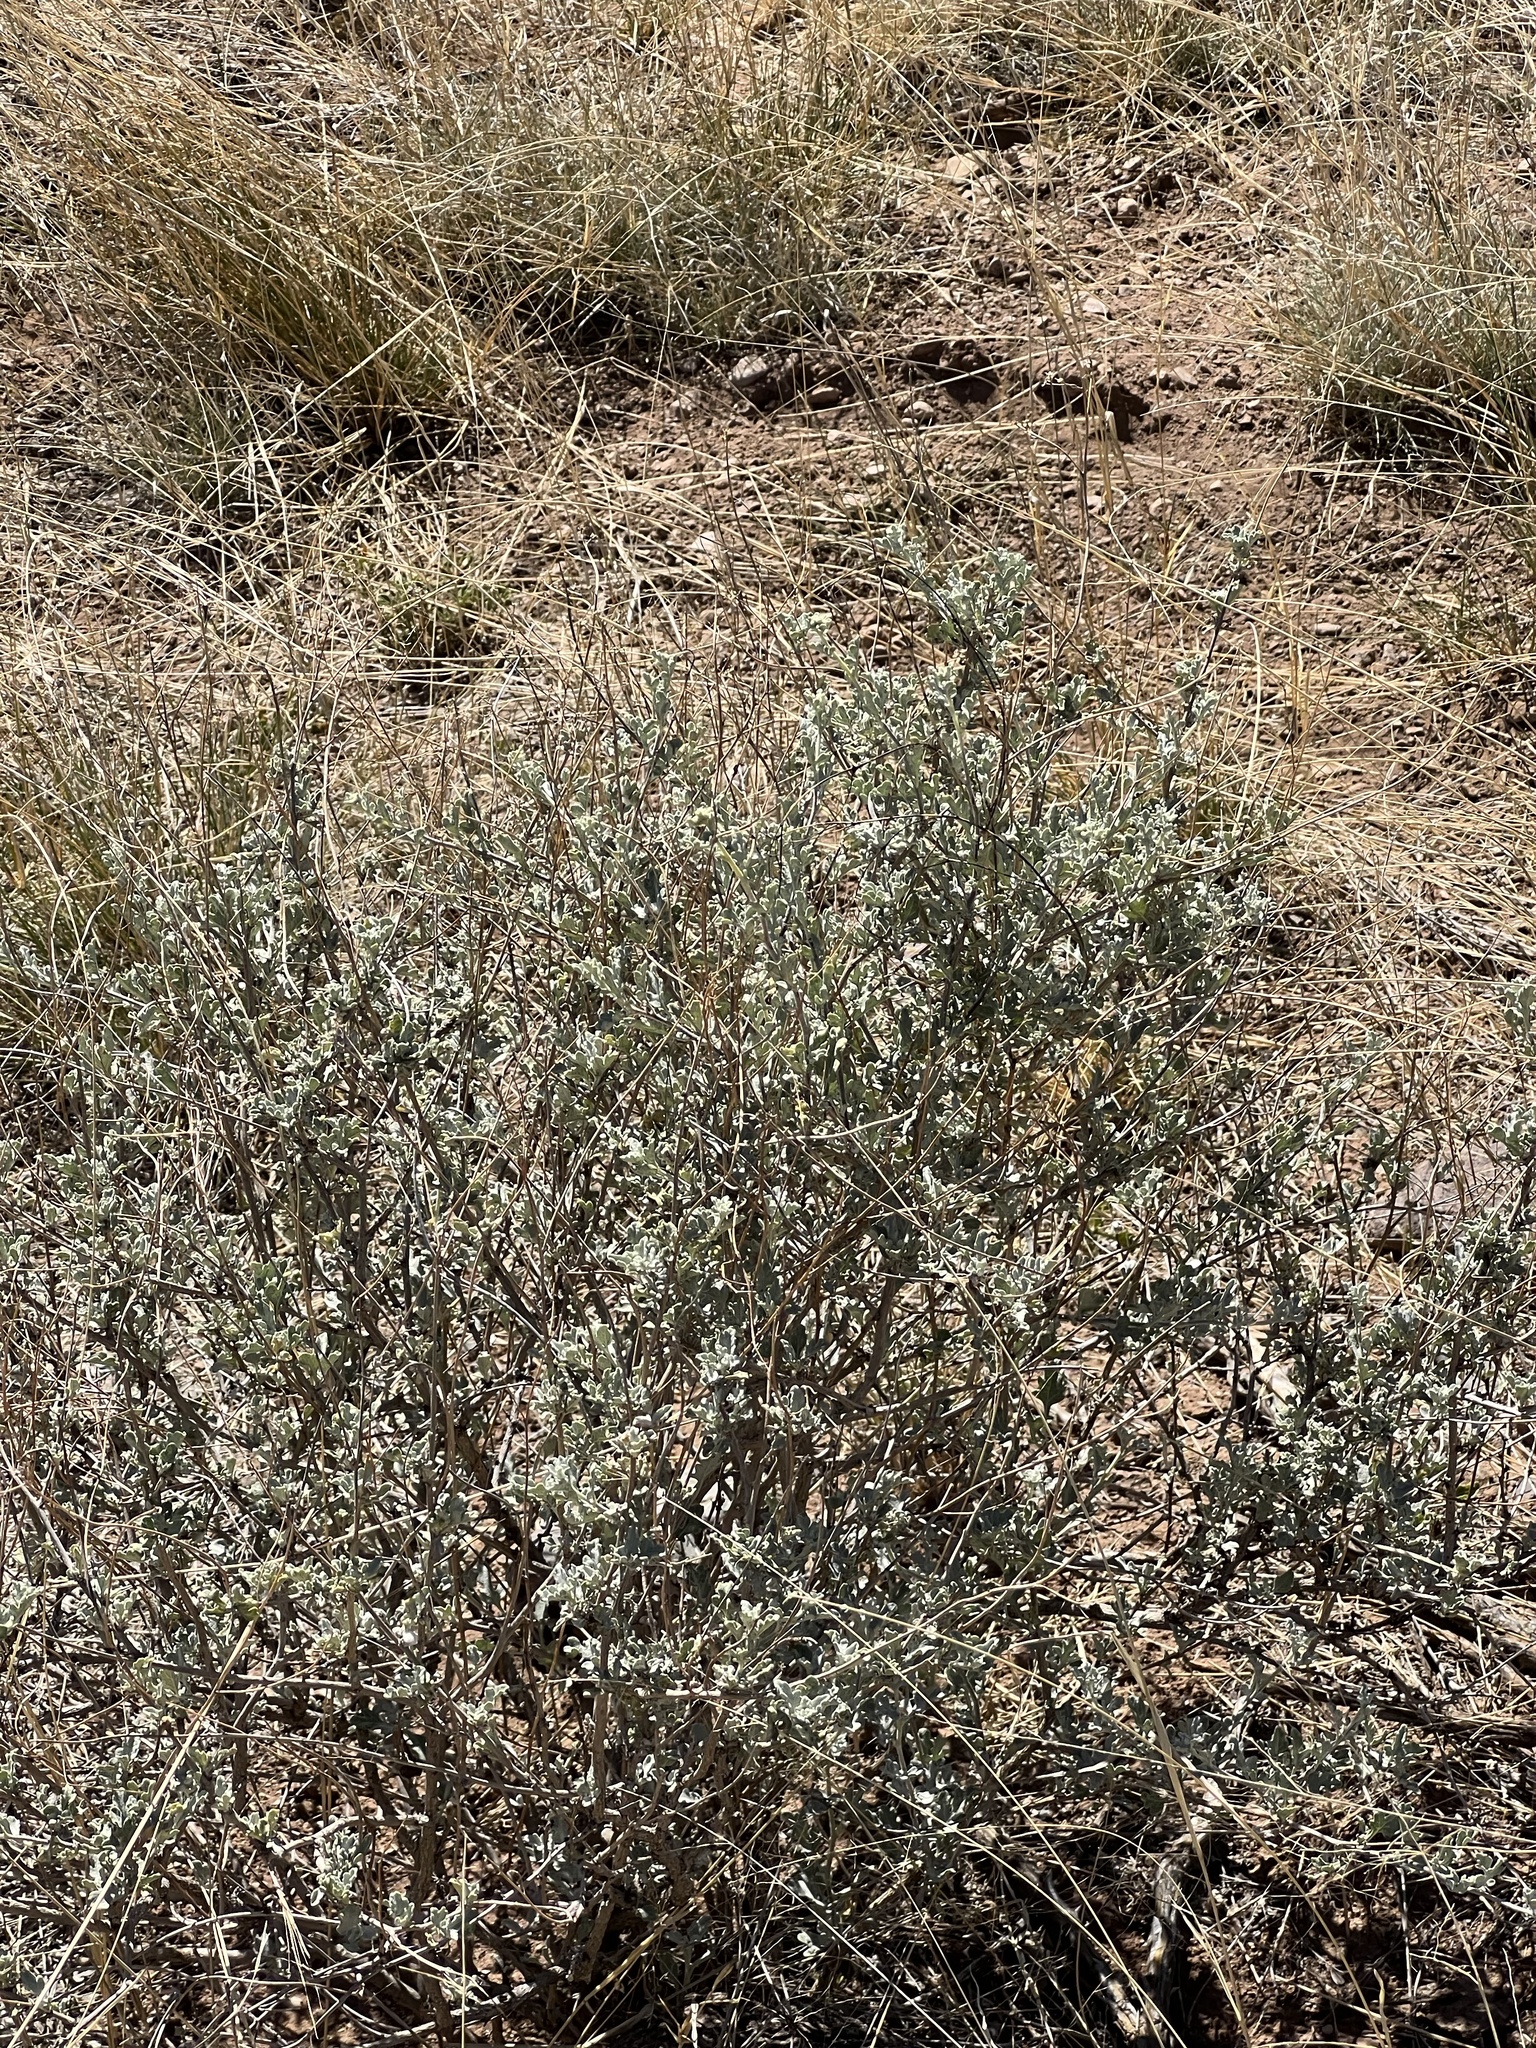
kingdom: Plantae
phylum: Tracheophyta
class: Magnoliopsida
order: Asterales
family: Asteraceae
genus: Parthenium
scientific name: Parthenium incanum
